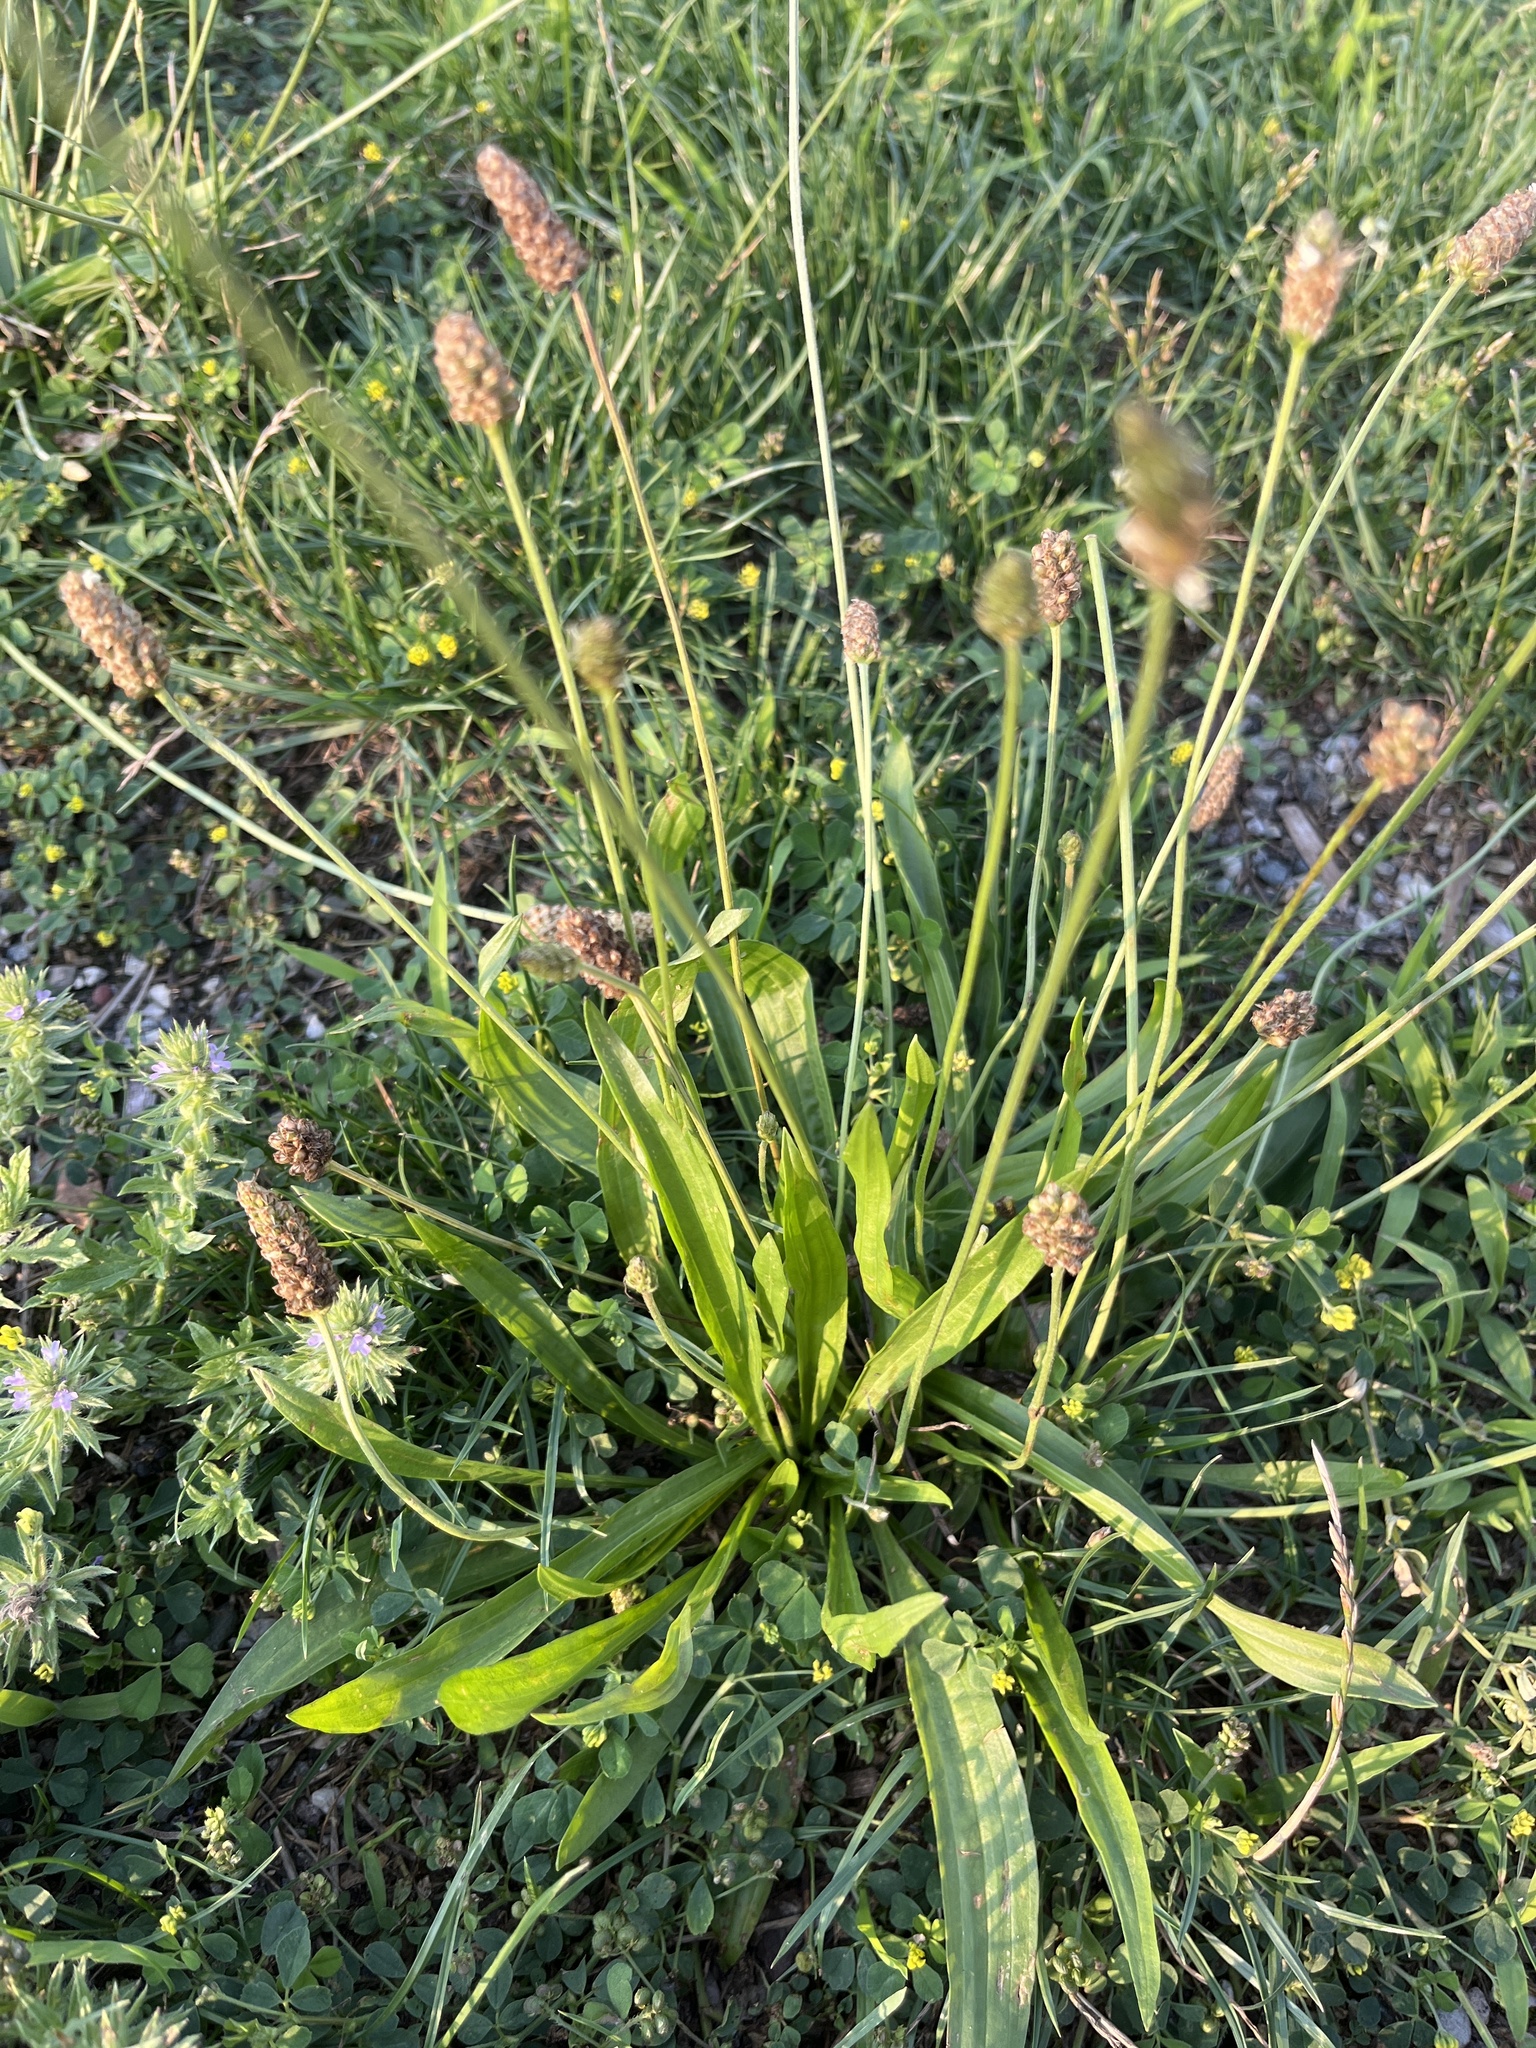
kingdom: Plantae
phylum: Tracheophyta
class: Magnoliopsida
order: Lamiales
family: Plantaginaceae
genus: Plantago
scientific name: Plantago lanceolata
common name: Ribwort plantain
